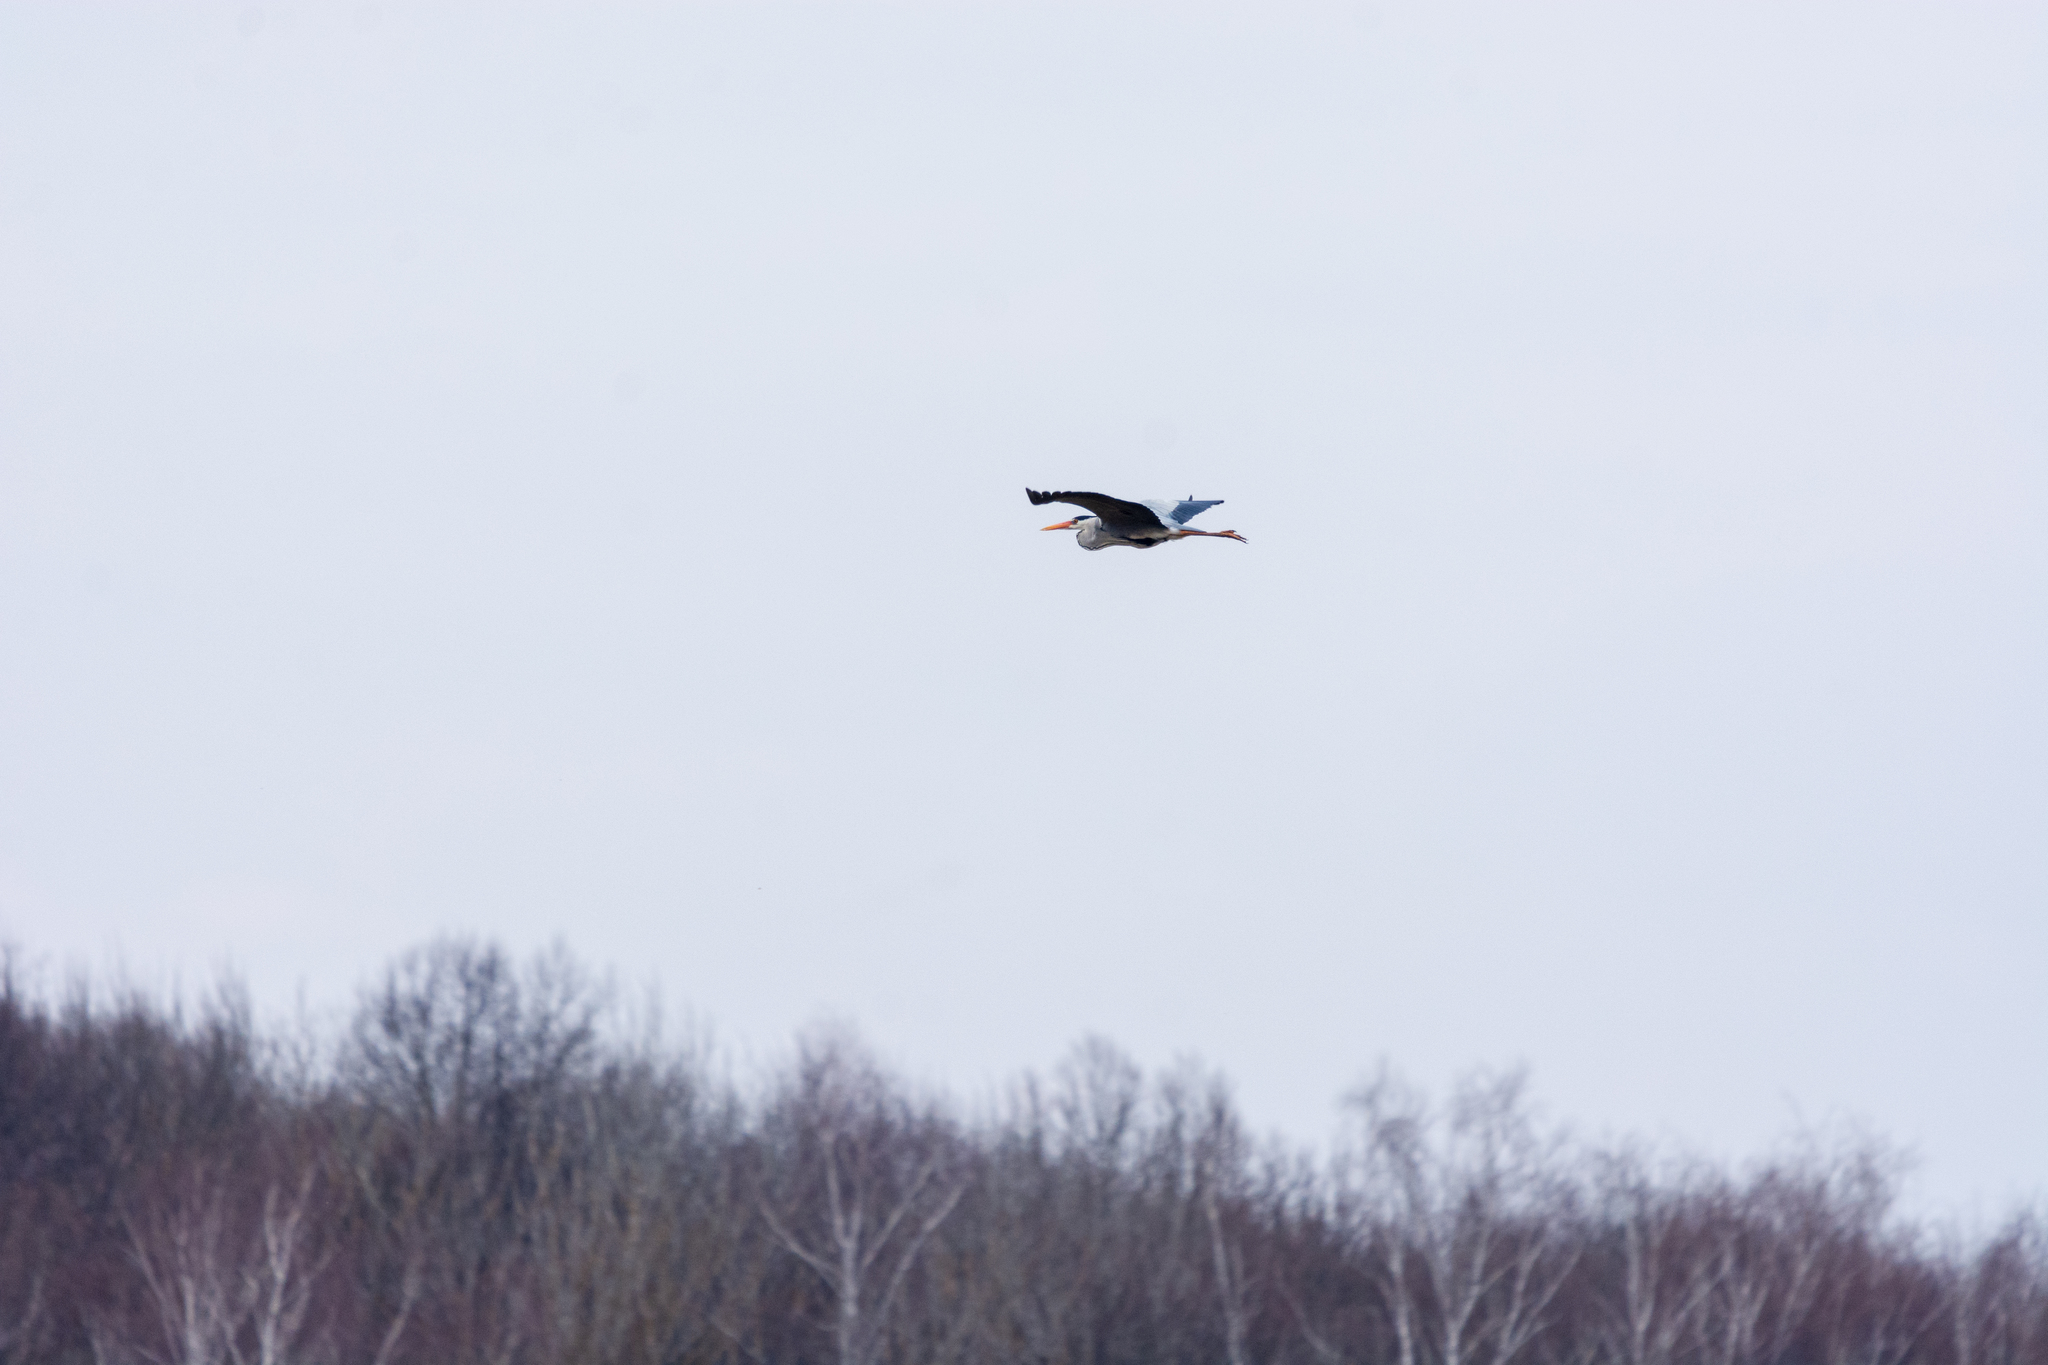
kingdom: Animalia
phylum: Chordata
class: Aves
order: Pelecaniformes
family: Ardeidae
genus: Ardea
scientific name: Ardea cinerea
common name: Grey heron
